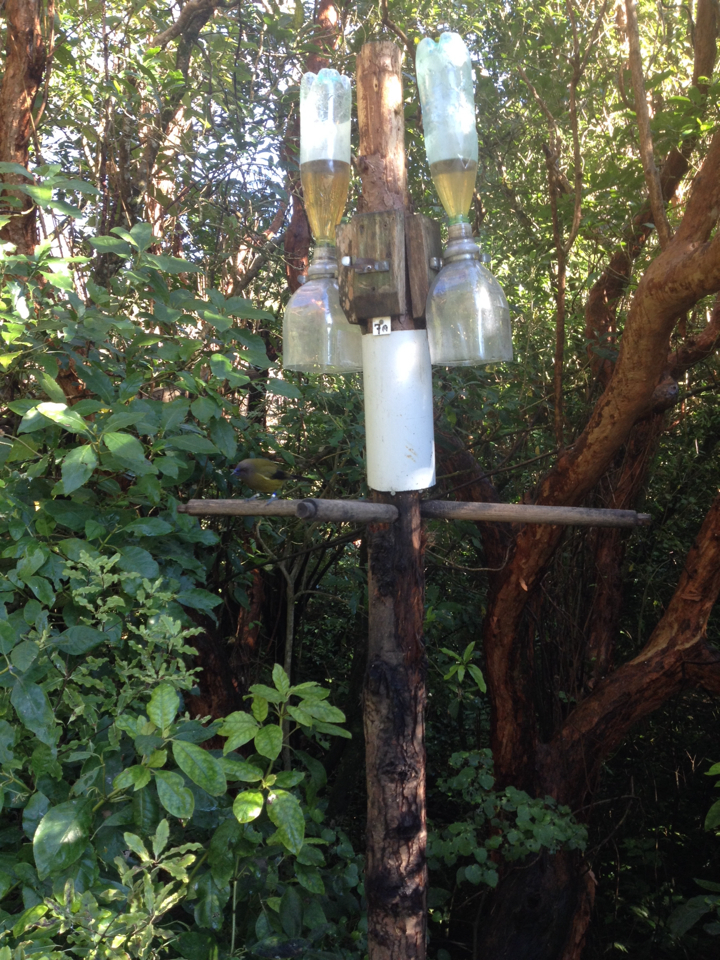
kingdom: Animalia
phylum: Chordata
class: Aves
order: Passeriformes
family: Meliphagidae
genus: Anthornis
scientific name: Anthornis melanura
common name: New zealand bellbird
